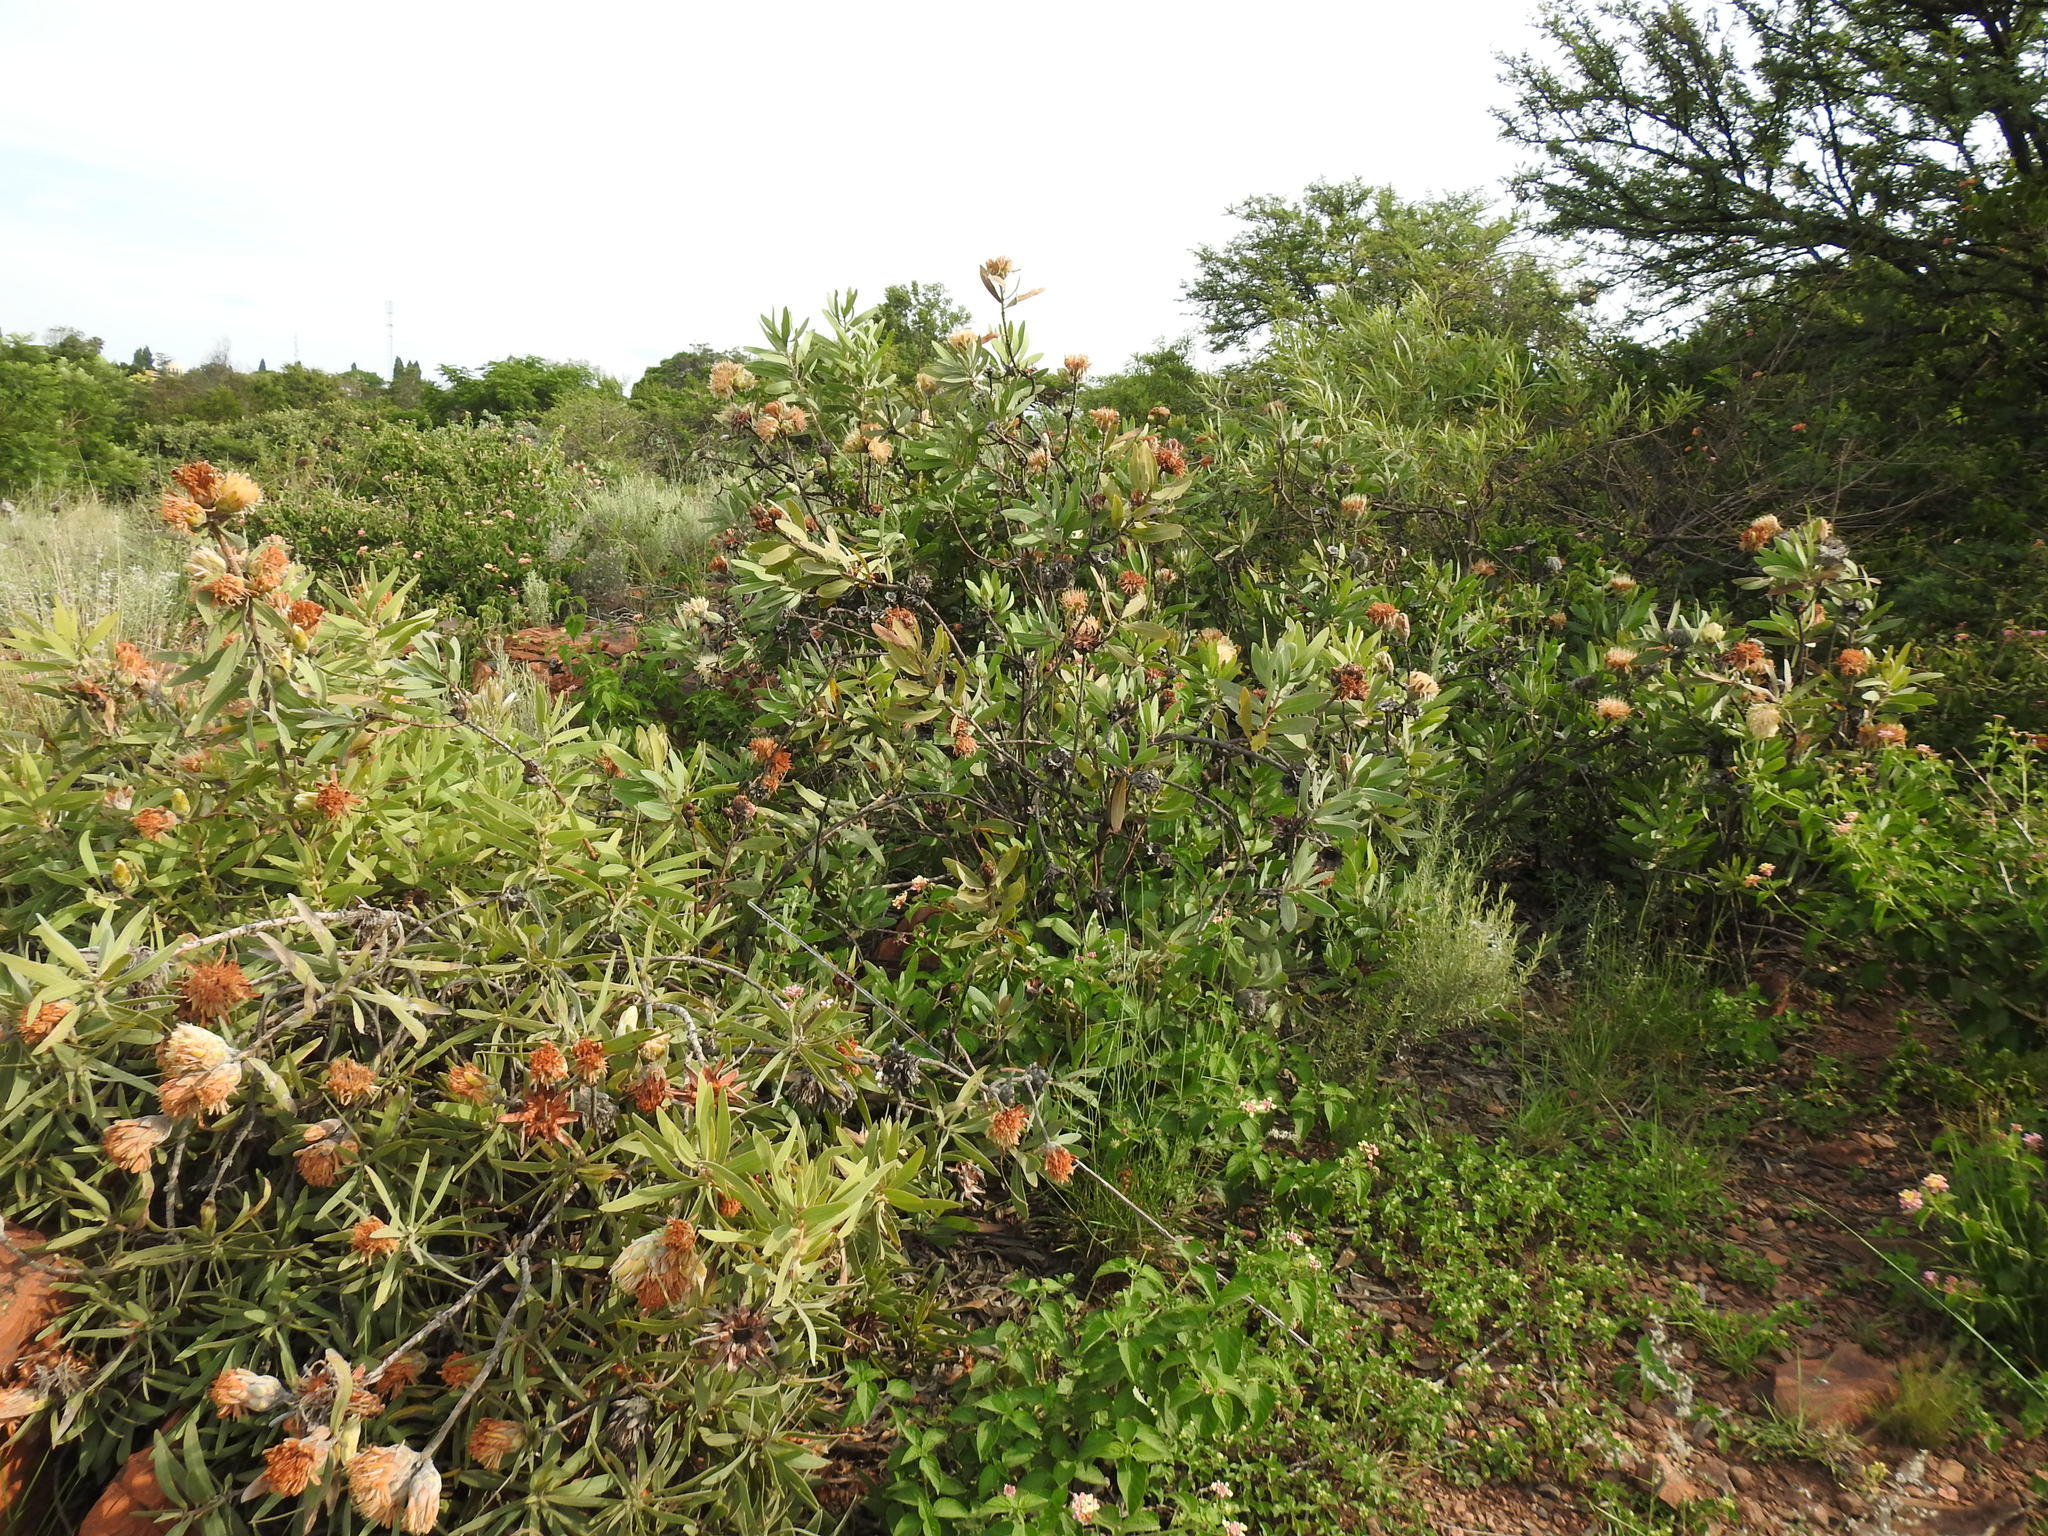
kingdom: Plantae
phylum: Tracheophyta
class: Magnoliopsida
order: Proteales
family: Proteaceae
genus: Protea
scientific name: Protea welwitschii
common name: Cluster-head protea
